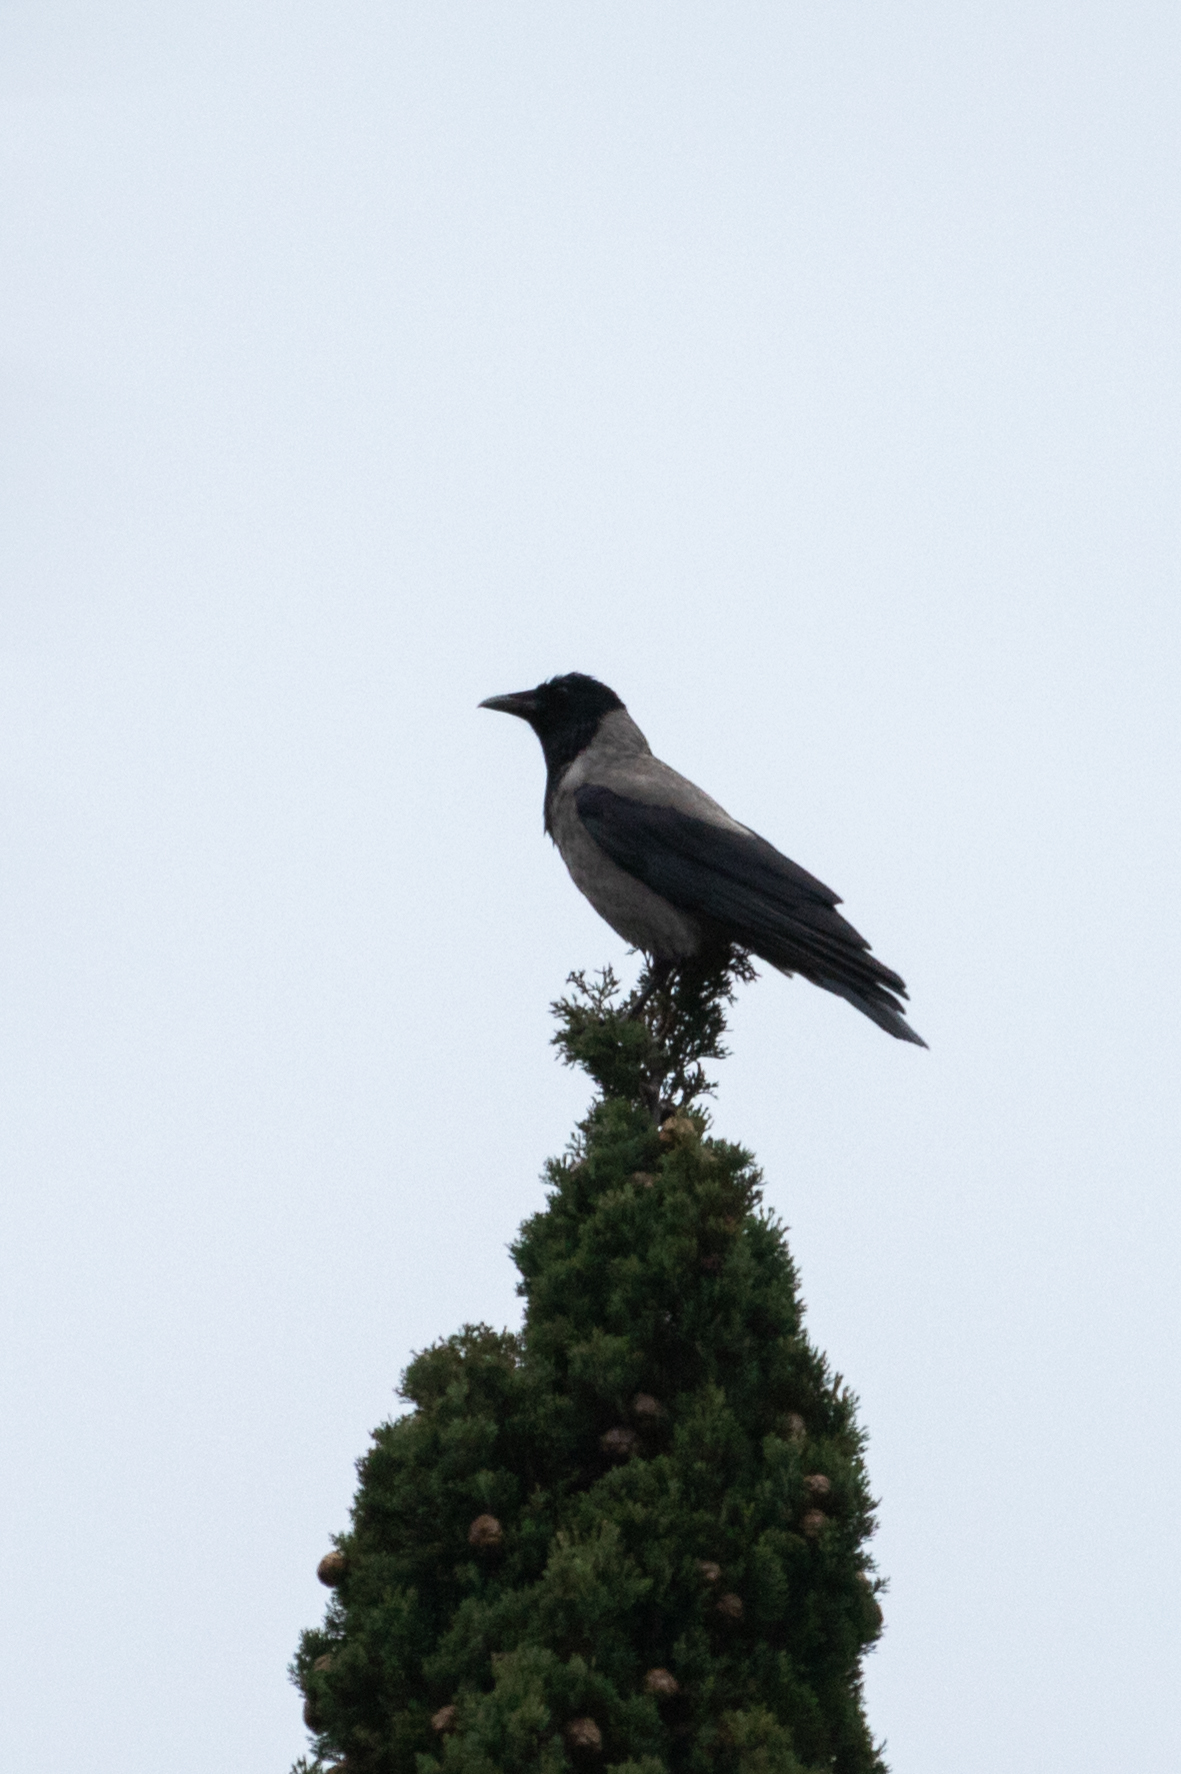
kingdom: Animalia
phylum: Chordata
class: Aves
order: Passeriformes
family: Corvidae
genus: Corvus
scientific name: Corvus cornix
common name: Hooded crow
